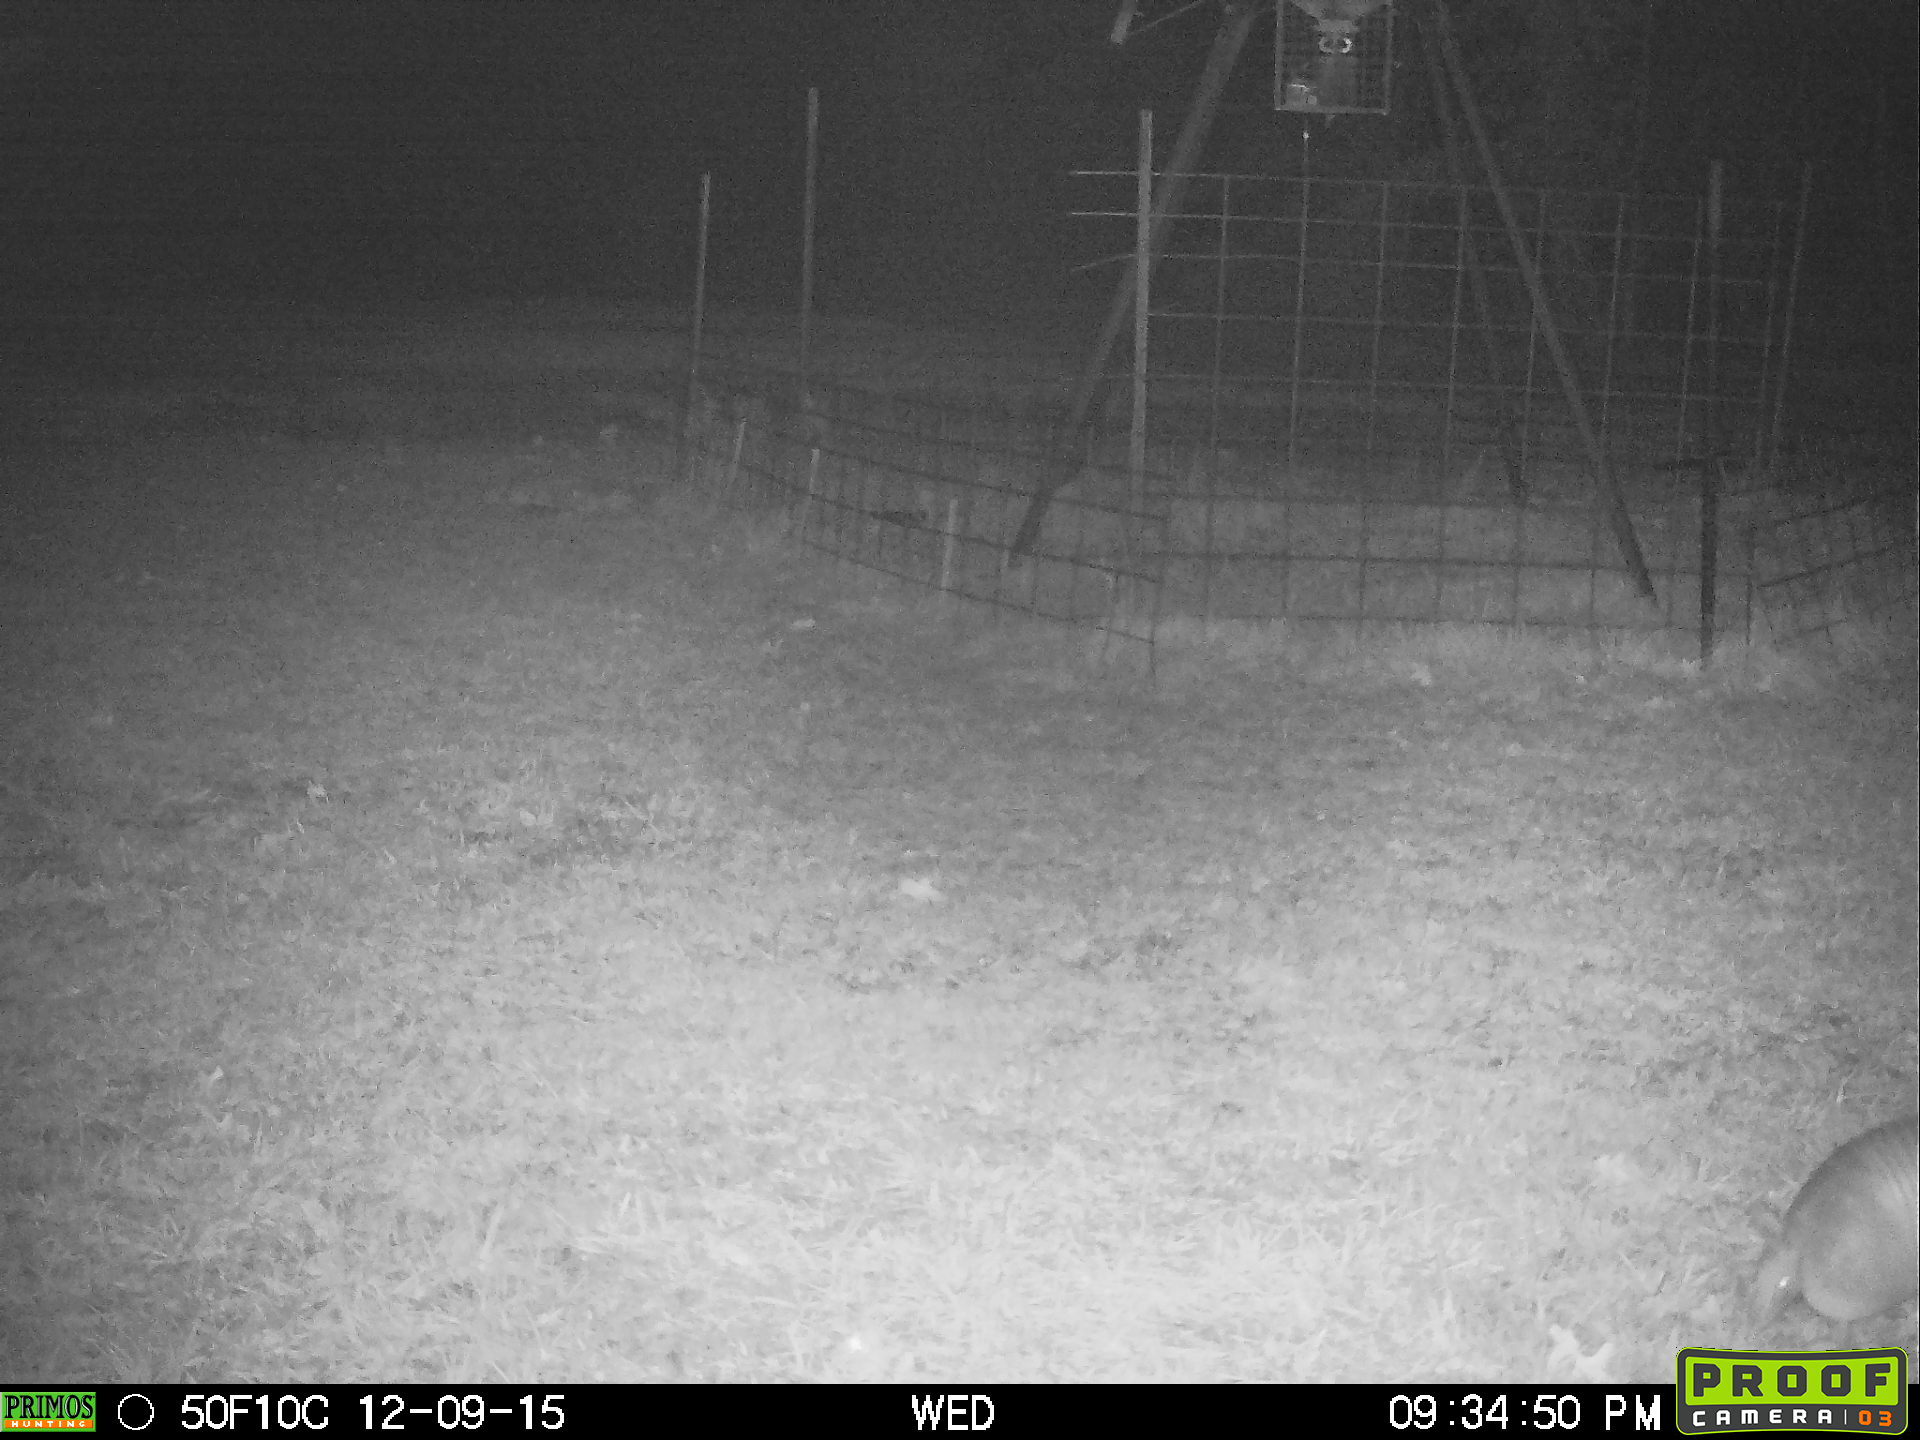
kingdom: Animalia
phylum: Chordata
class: Mammalia
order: Cingulata
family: Dasypodidae
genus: Dasypus
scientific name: Dasypus novemcinctus
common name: Nine-banded armadillo
